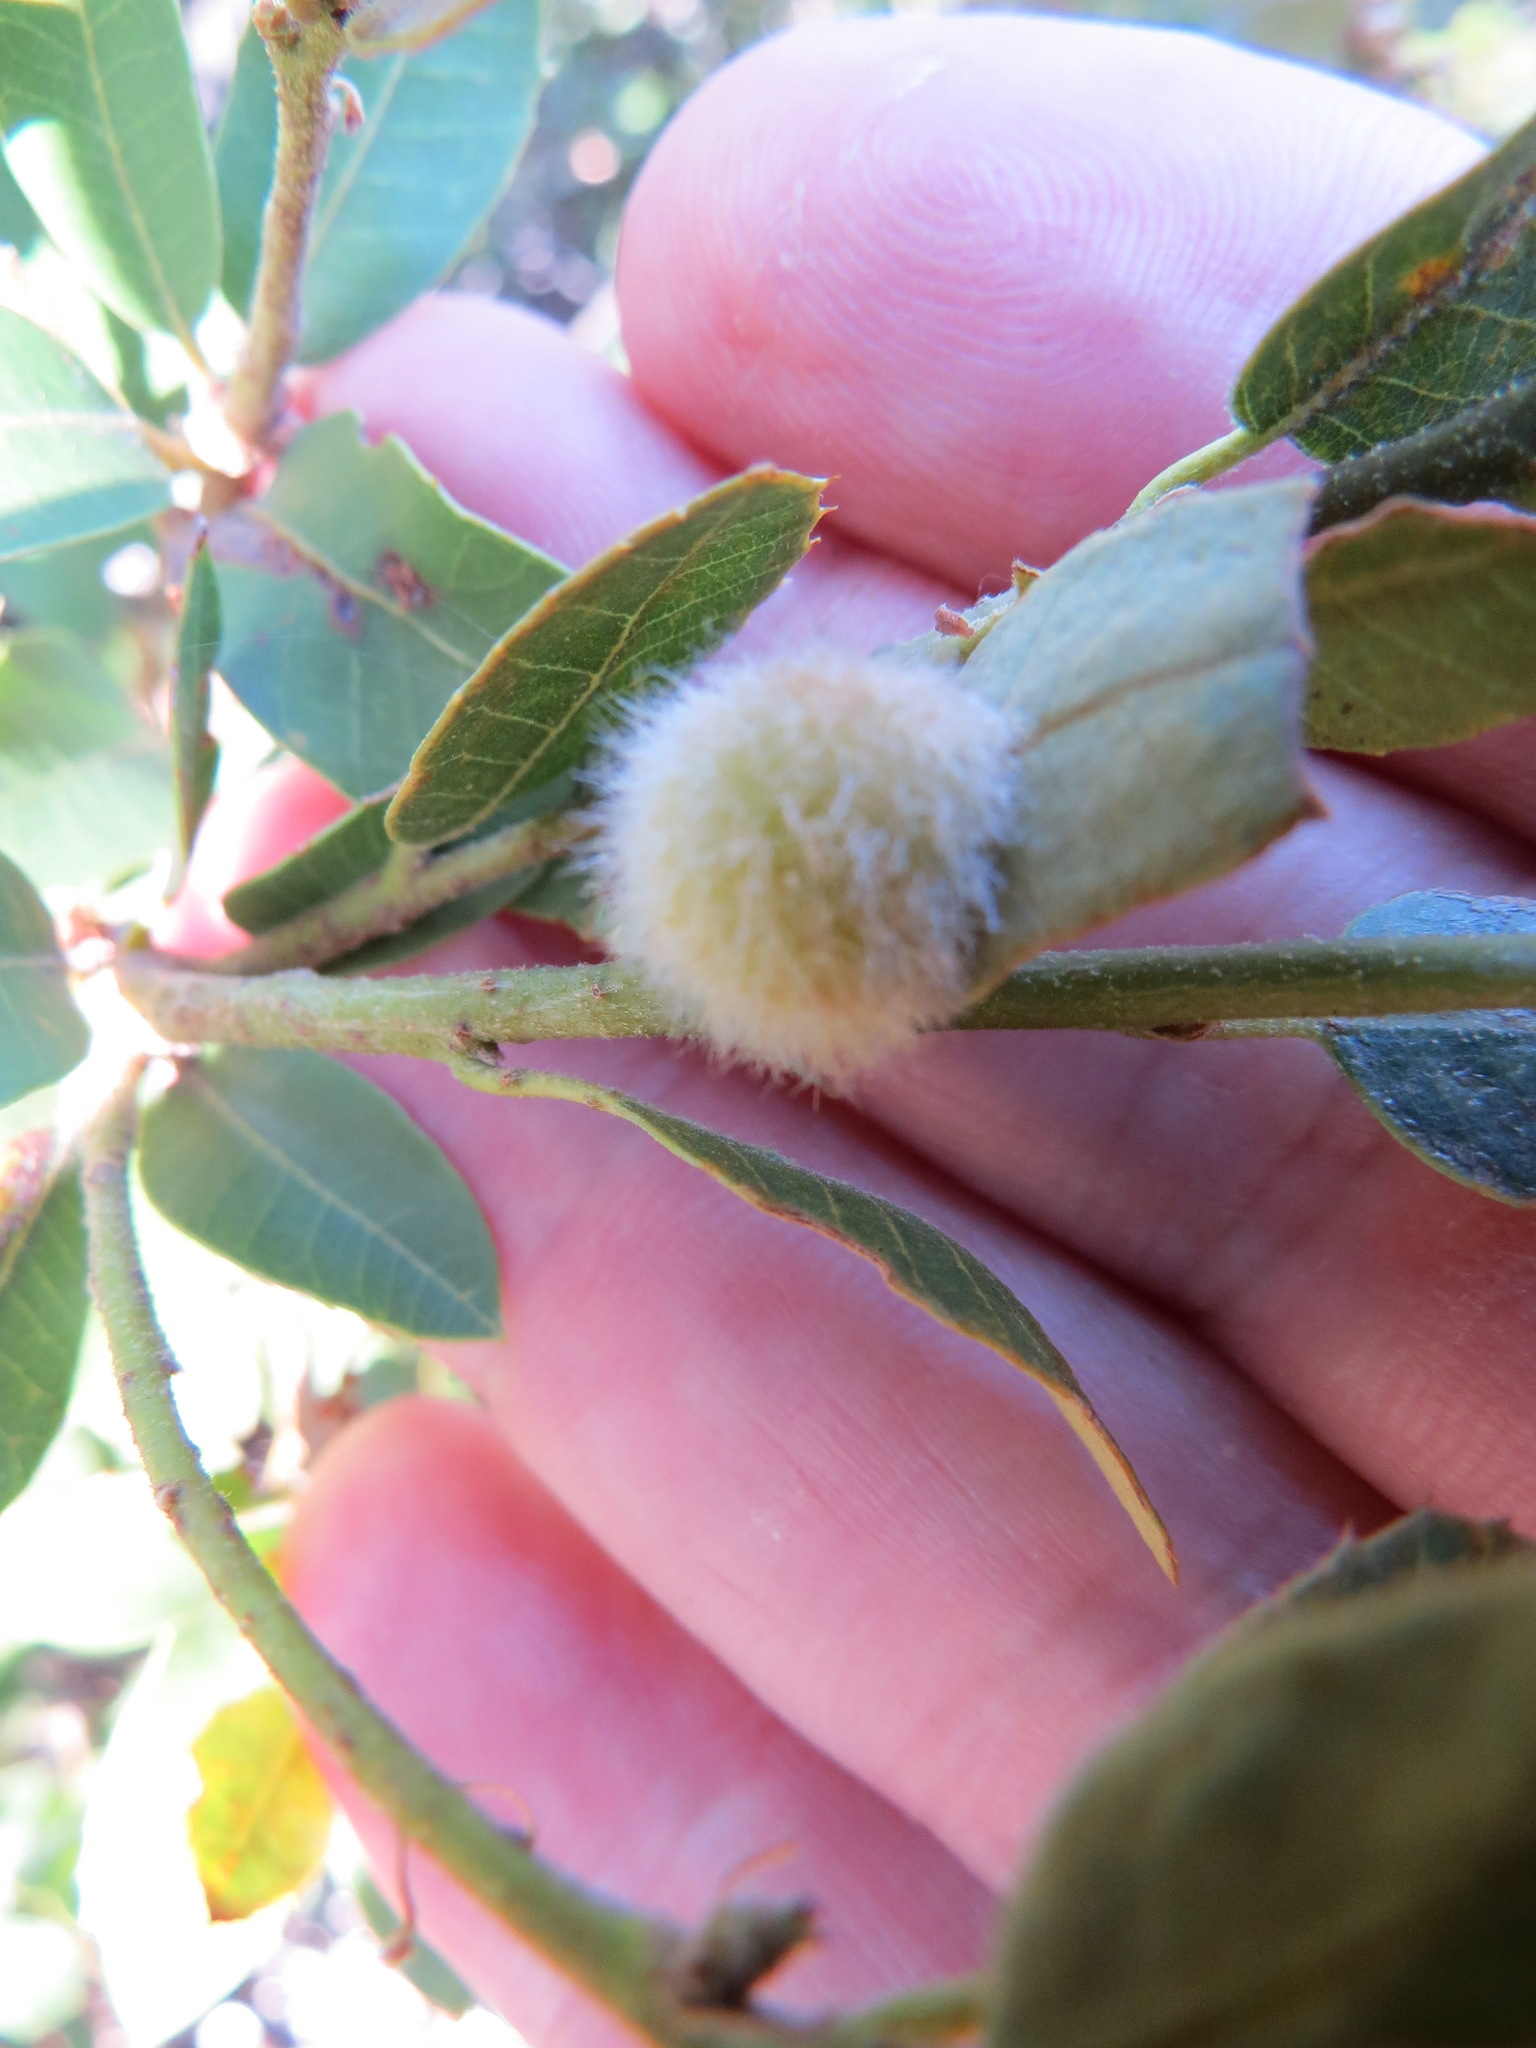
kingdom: Animalia
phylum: Arthropoda
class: Insecta
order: Hymenoptera
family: Cynipidae
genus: Disholandricus
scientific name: Disholandricus
